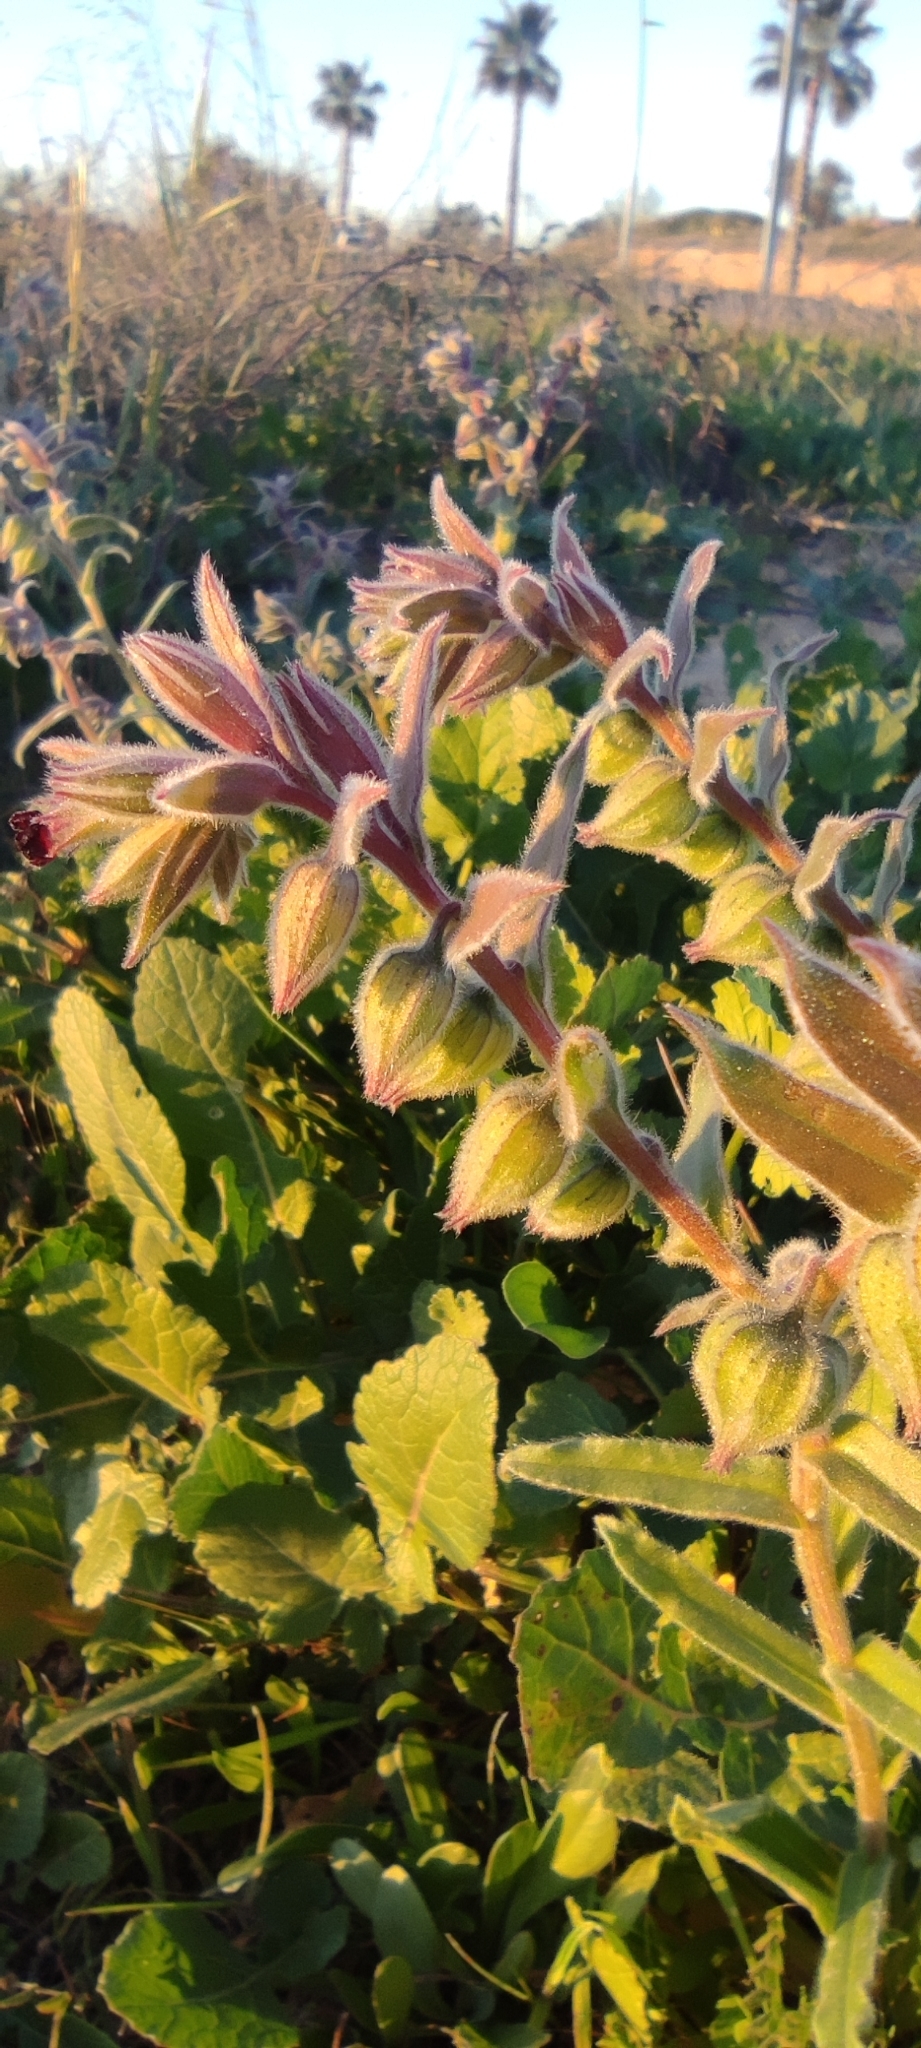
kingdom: Plantae
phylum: Tracheophyta
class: Magnoliopsida
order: Boraginales
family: Boraginaceae
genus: Nonea
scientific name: Nonea vesicaria
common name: Red monkswort
